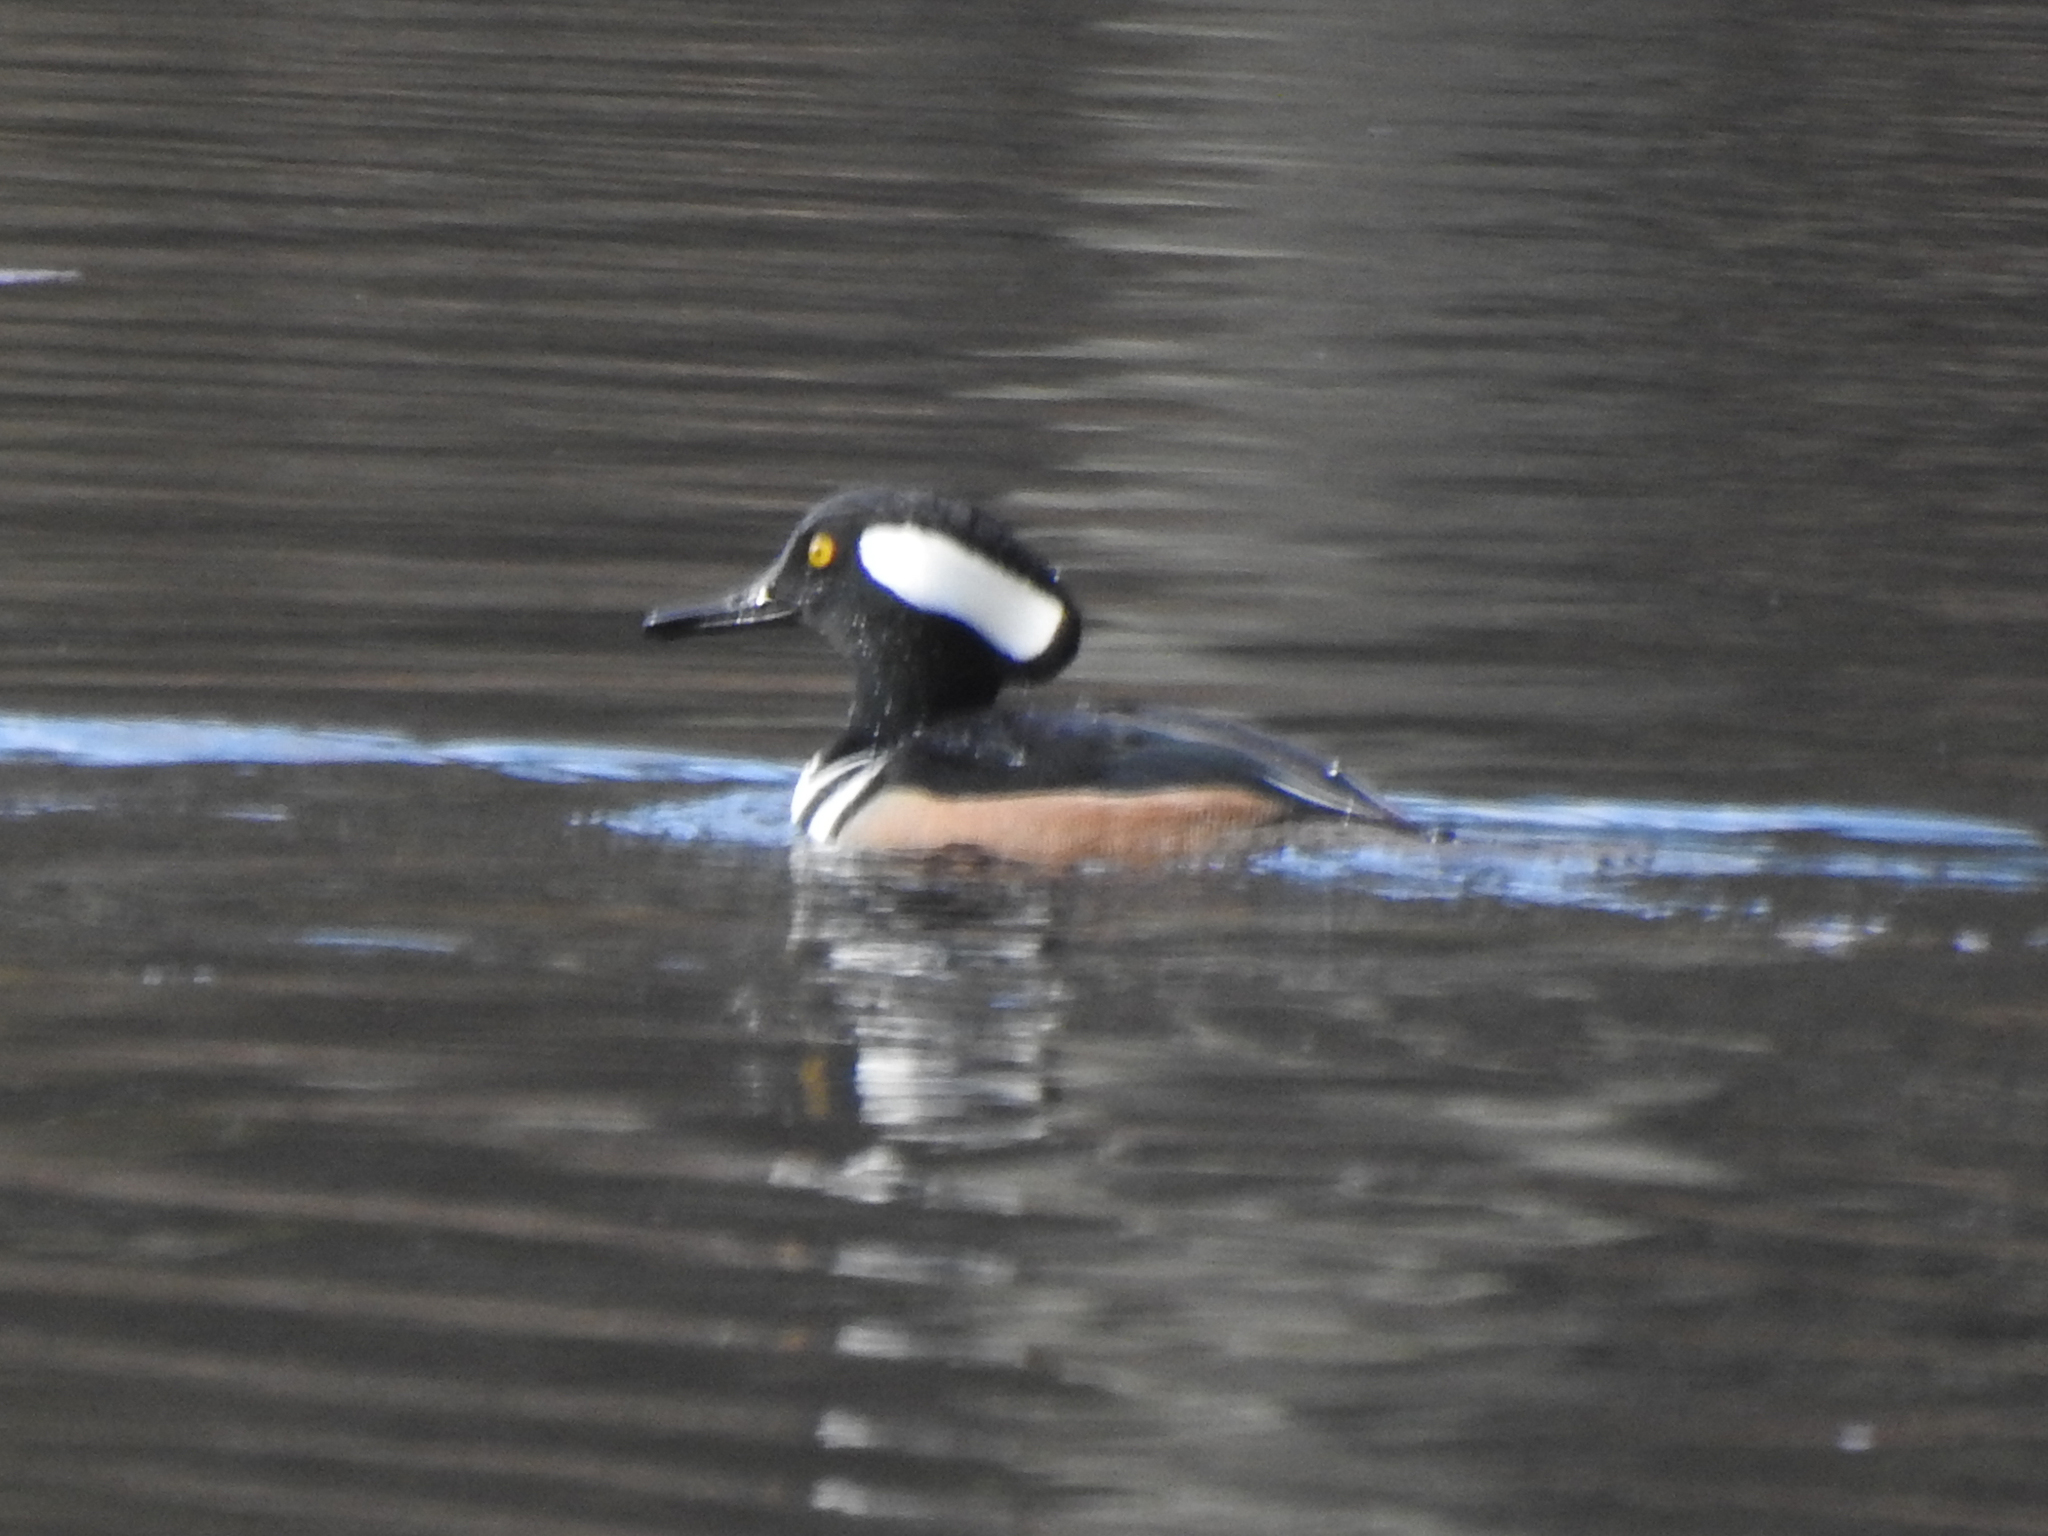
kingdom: Animalia
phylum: Chordata
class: Aves
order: Anseriformes
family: Anatidae
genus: Lophodytes
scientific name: Lophodytes cucullatus
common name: Hooded merganser
